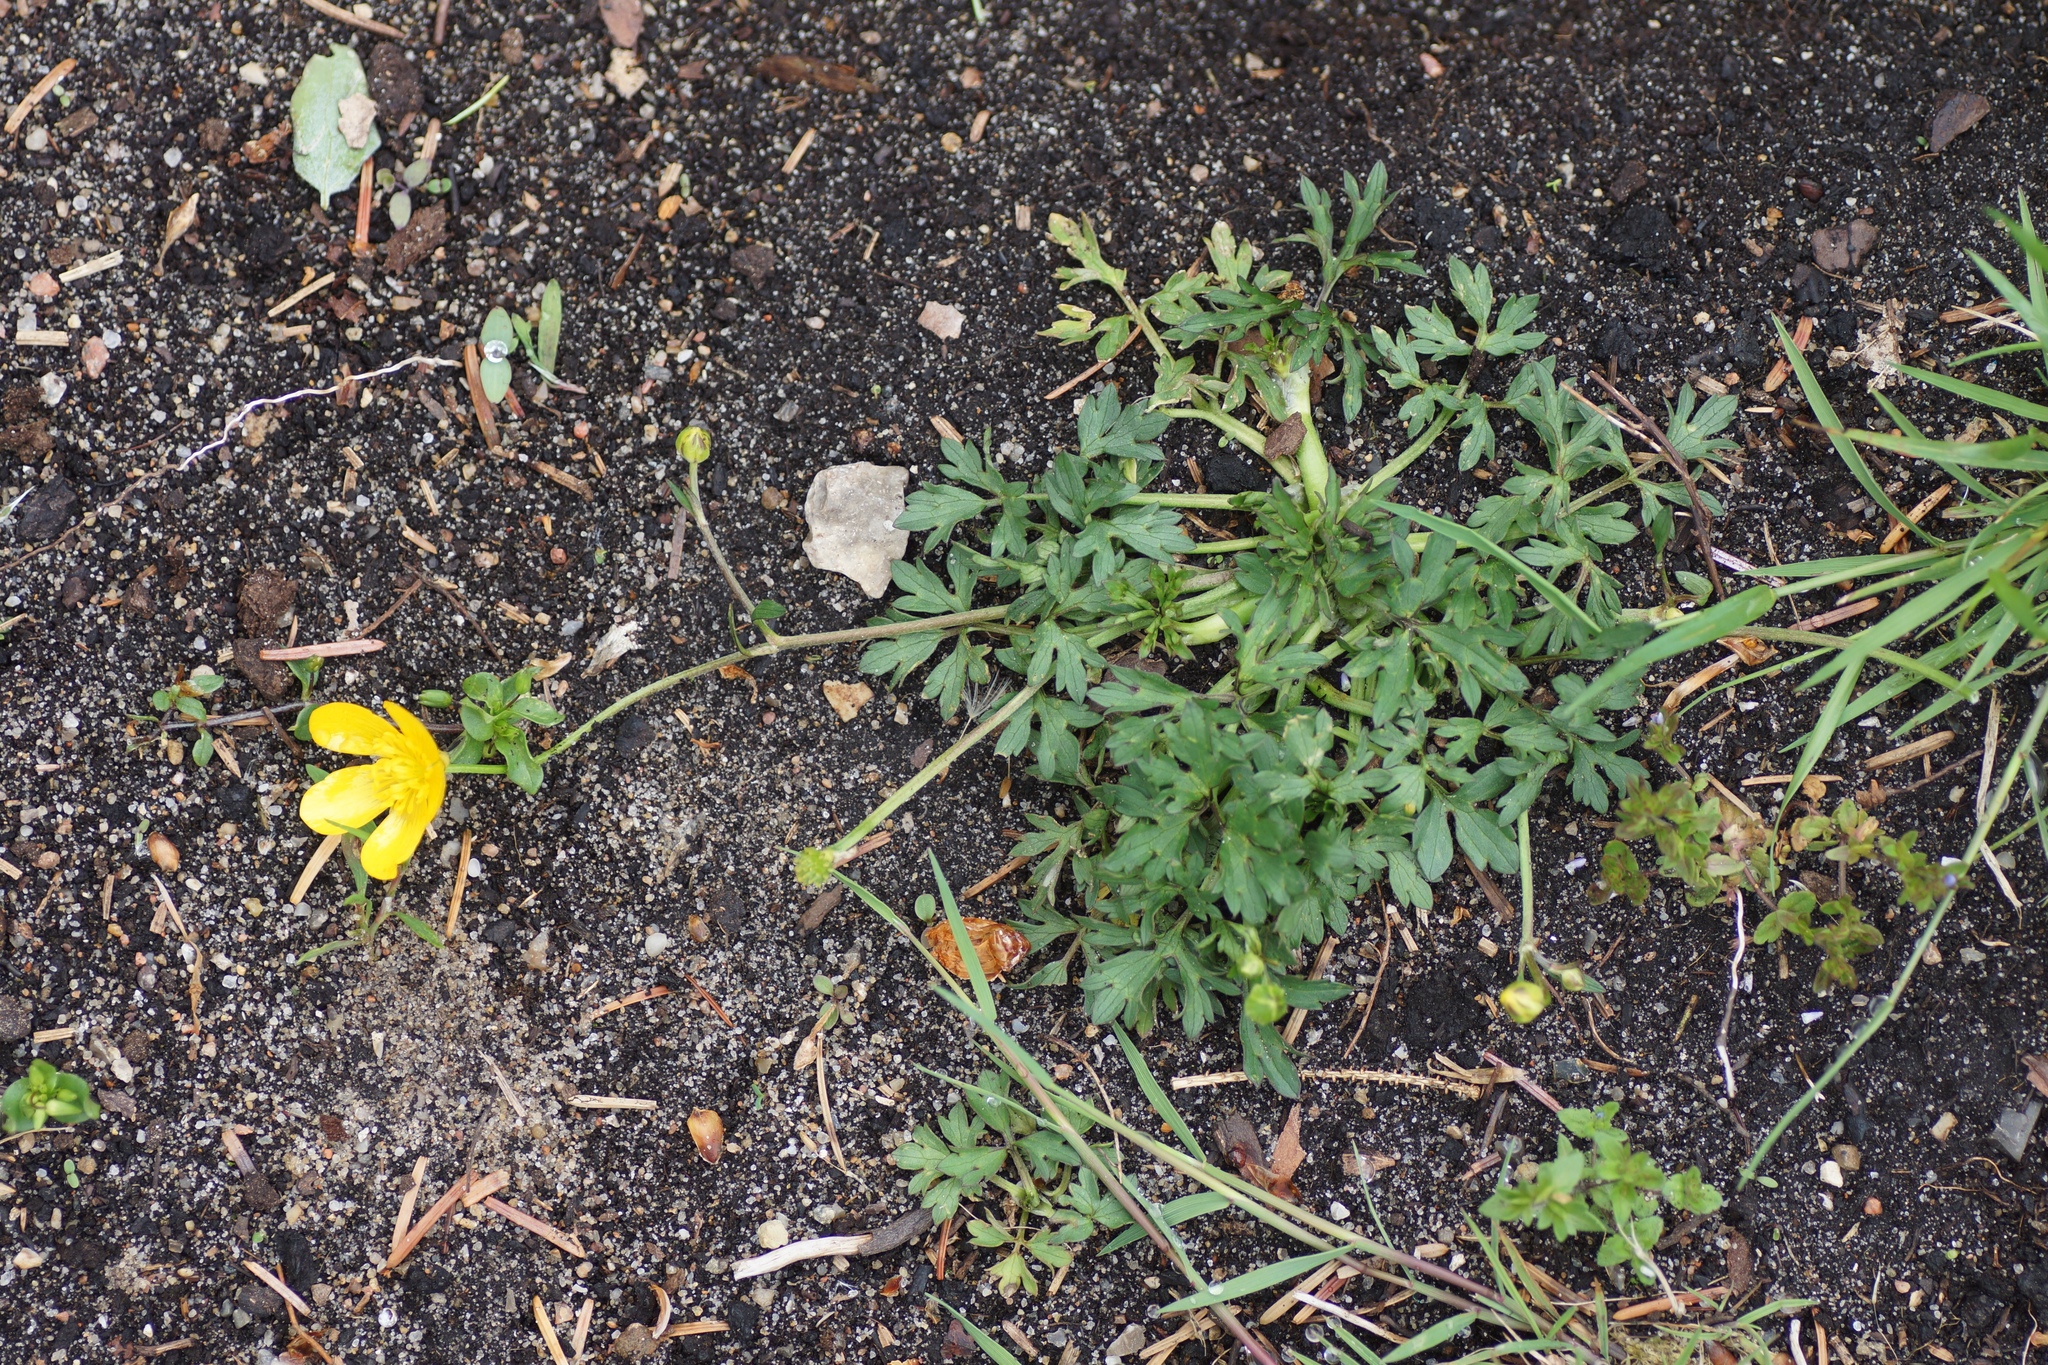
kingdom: Plantae
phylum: Tracheophyta
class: Magnoliopsida
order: Ranunculales
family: Ranunculaceae
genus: Ranunculus
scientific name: Ranunculus repens
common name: Creeping buttercup
